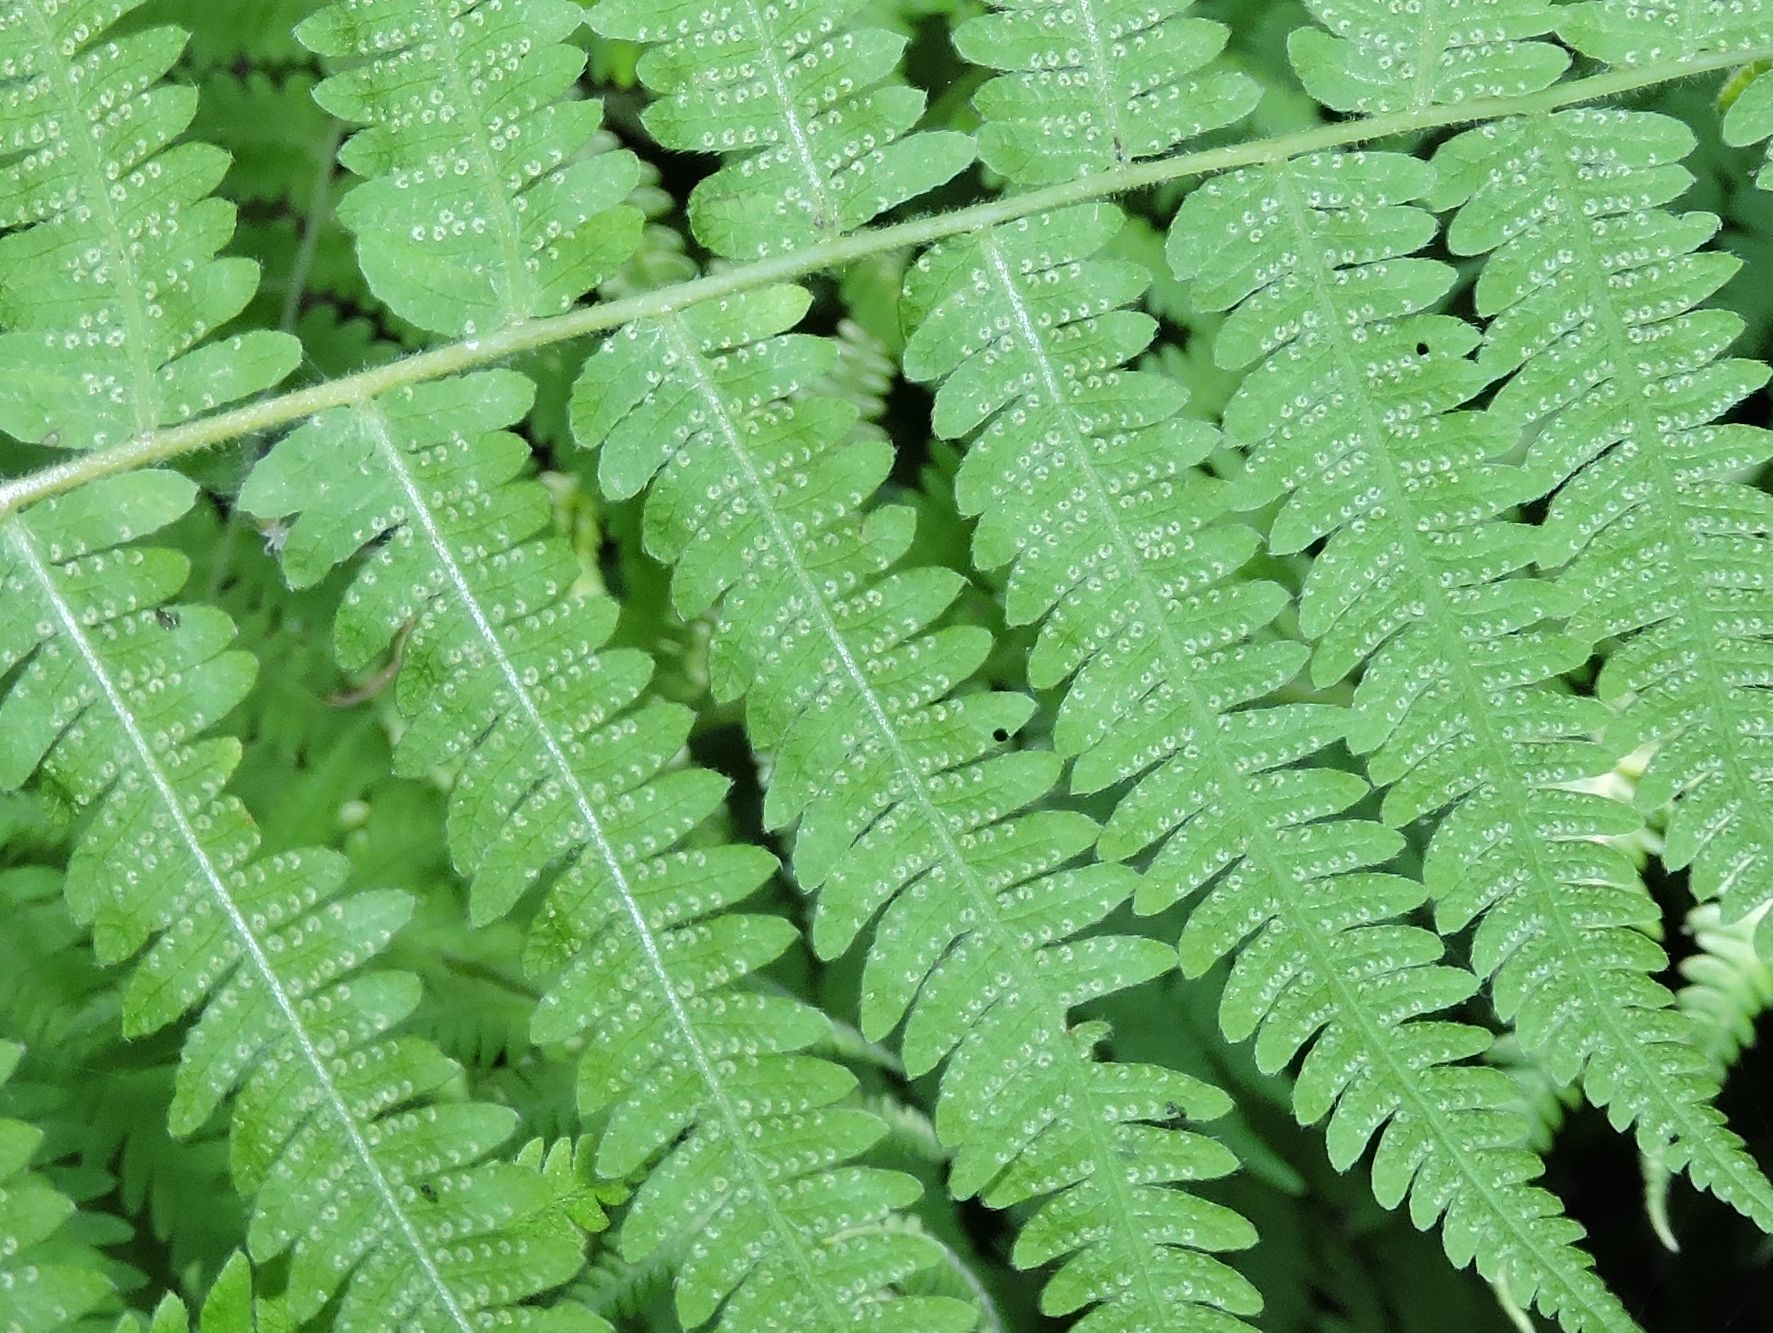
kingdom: Plantae
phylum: Tracheophyta
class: Polypodiopsida
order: Polypodiales
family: Thelypteridaceae
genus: Amauropelta
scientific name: Amauropelta noveboracensis
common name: New york fern
